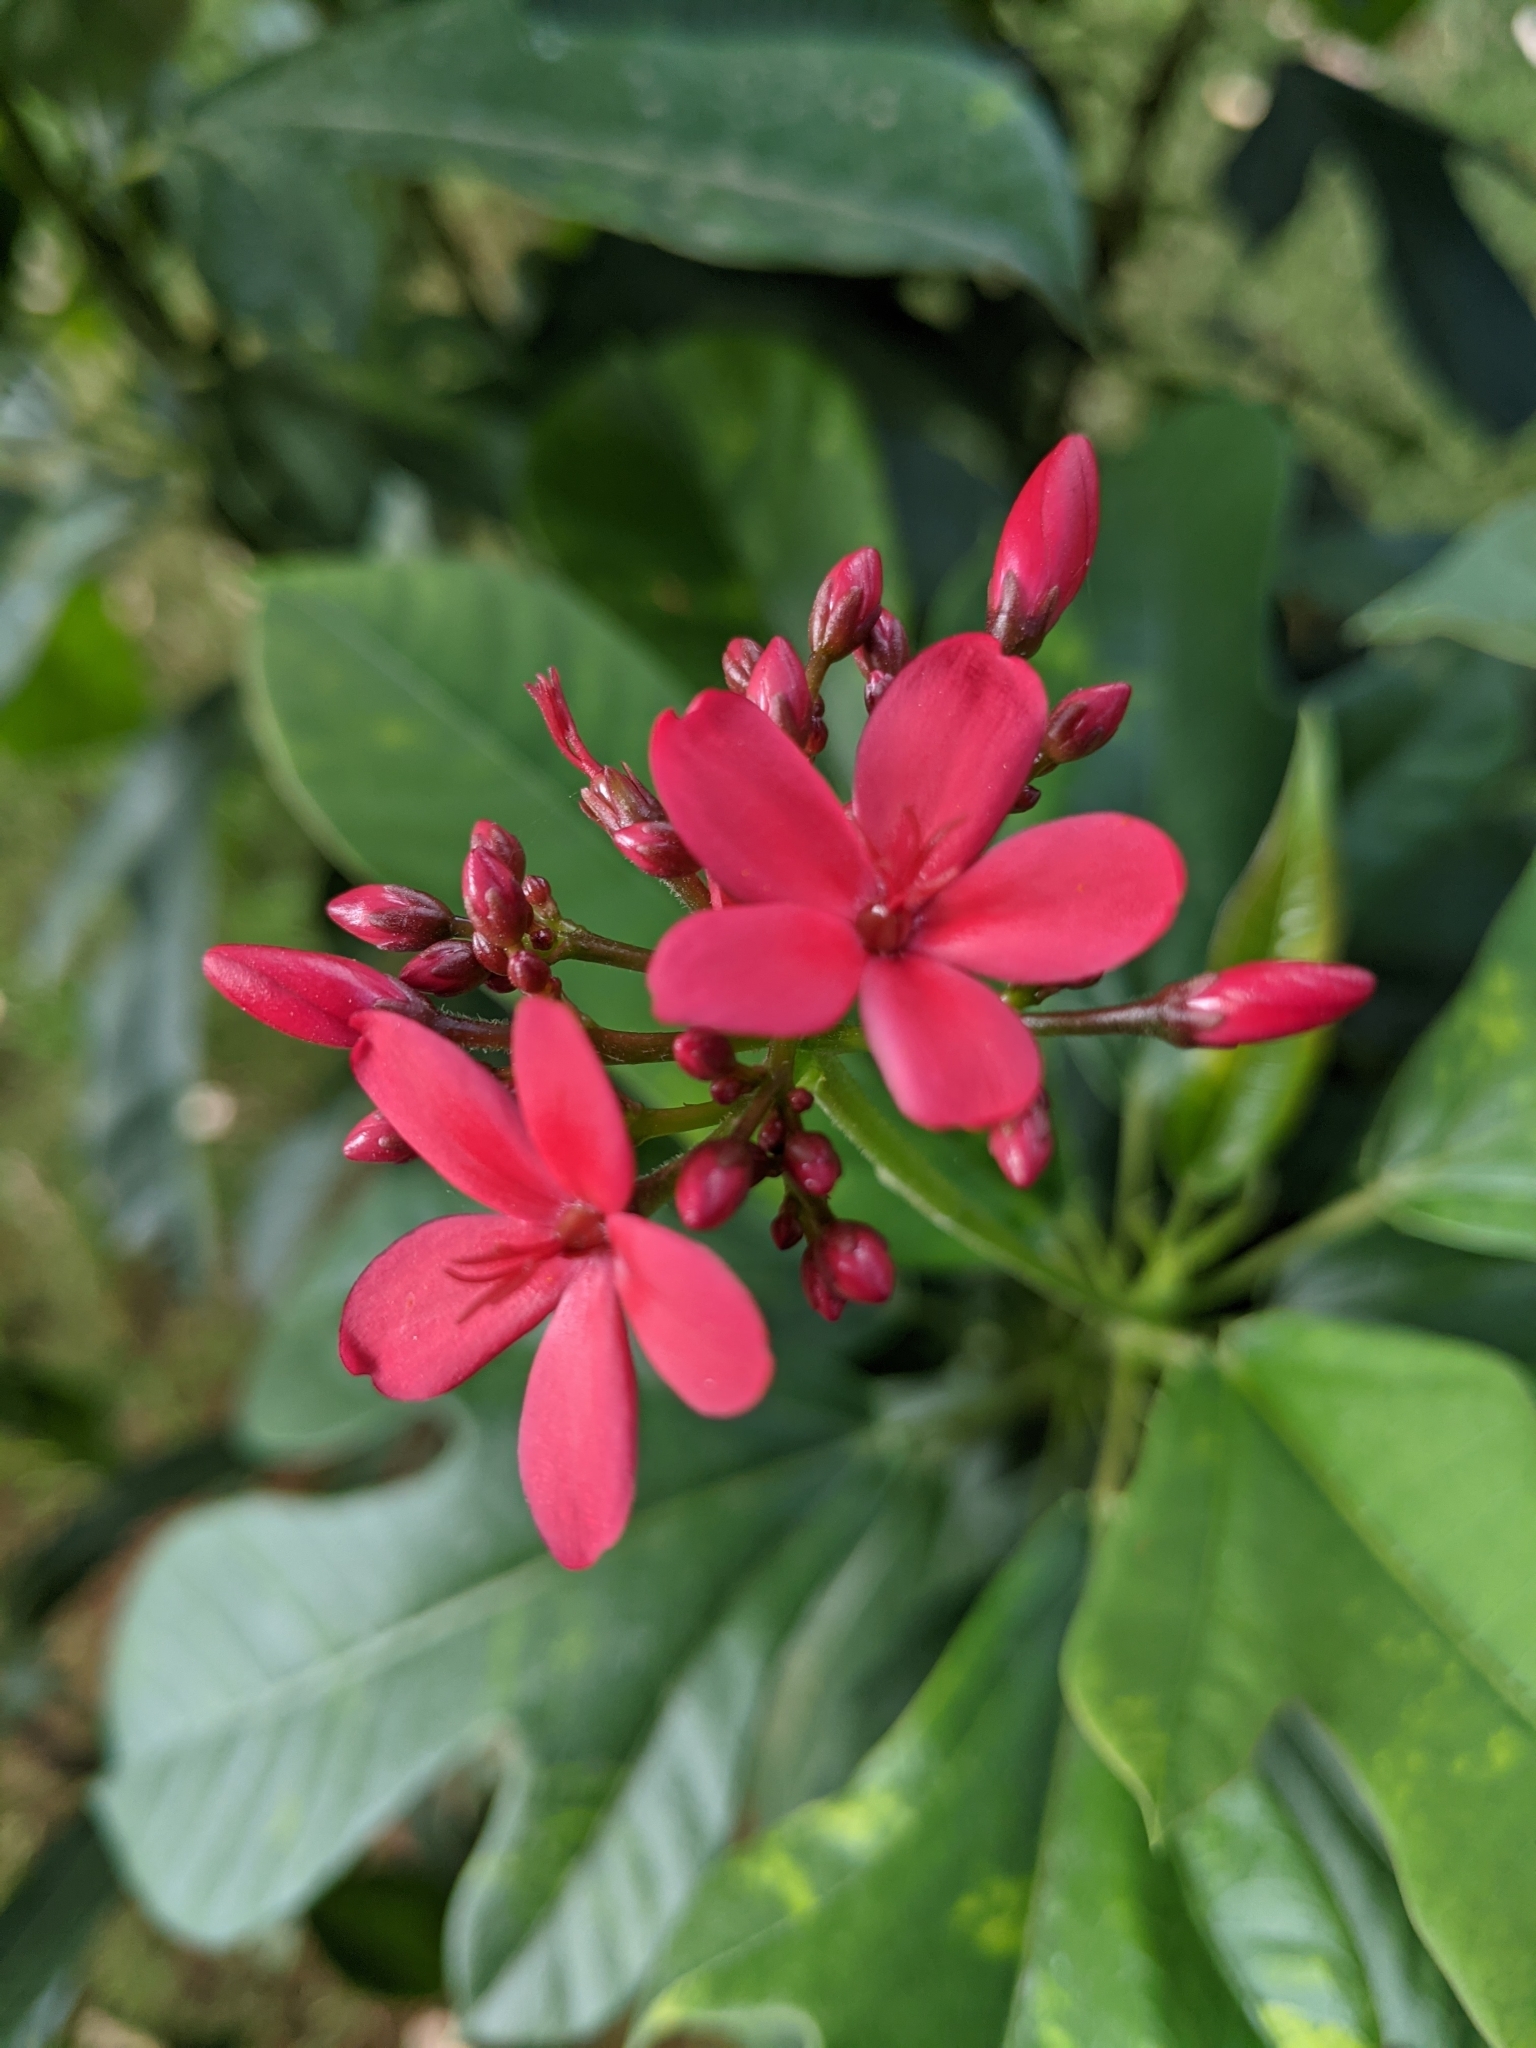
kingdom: Plantae
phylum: Tracheophyta
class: Magnoliopsida
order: Malpighiales
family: Euphorbiaceae
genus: Jatropha
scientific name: Jatropha integerrima
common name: Peregrina
